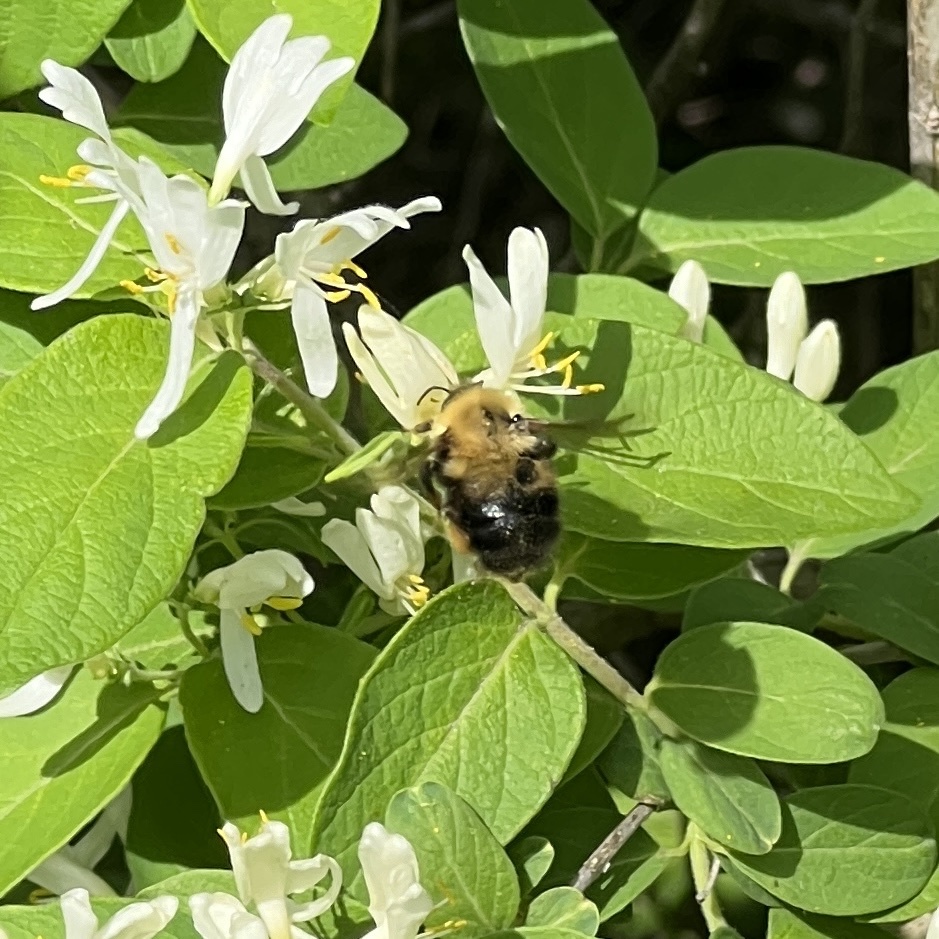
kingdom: Animalia
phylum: Arthropoda
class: Insecta
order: Hymenoptera
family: Apidae
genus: Bombus
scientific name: Bombus perplexus
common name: Confusing bumble bee
